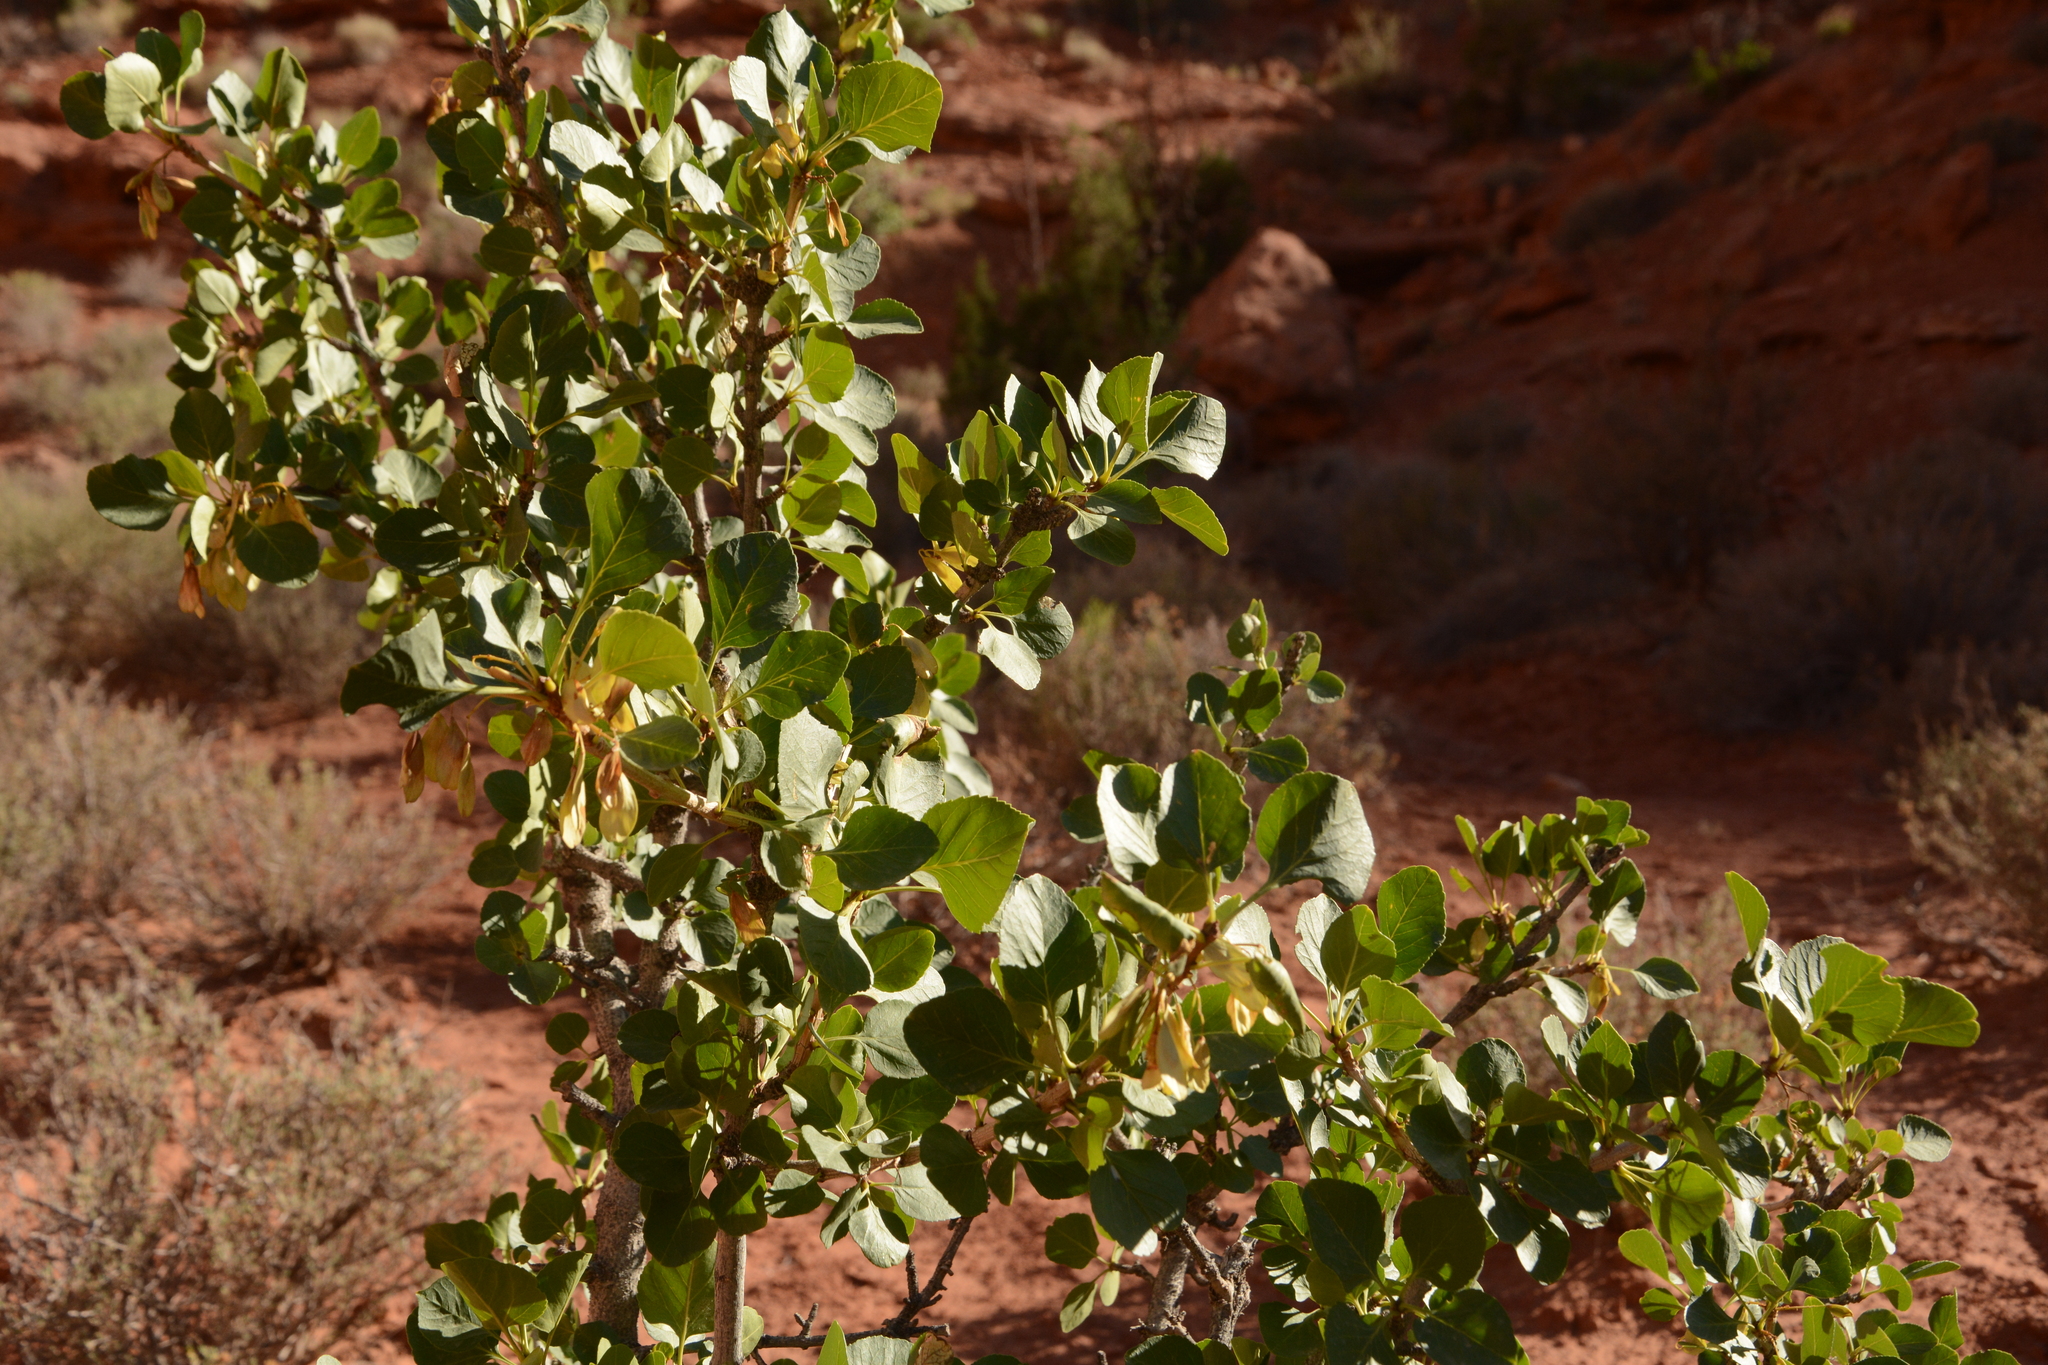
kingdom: Plantae
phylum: Tracheophyta
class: Magnoliopsida
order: Lamiales
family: Oleaceae
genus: Fraxinus
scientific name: Fraxinus anomala
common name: Utah ash
